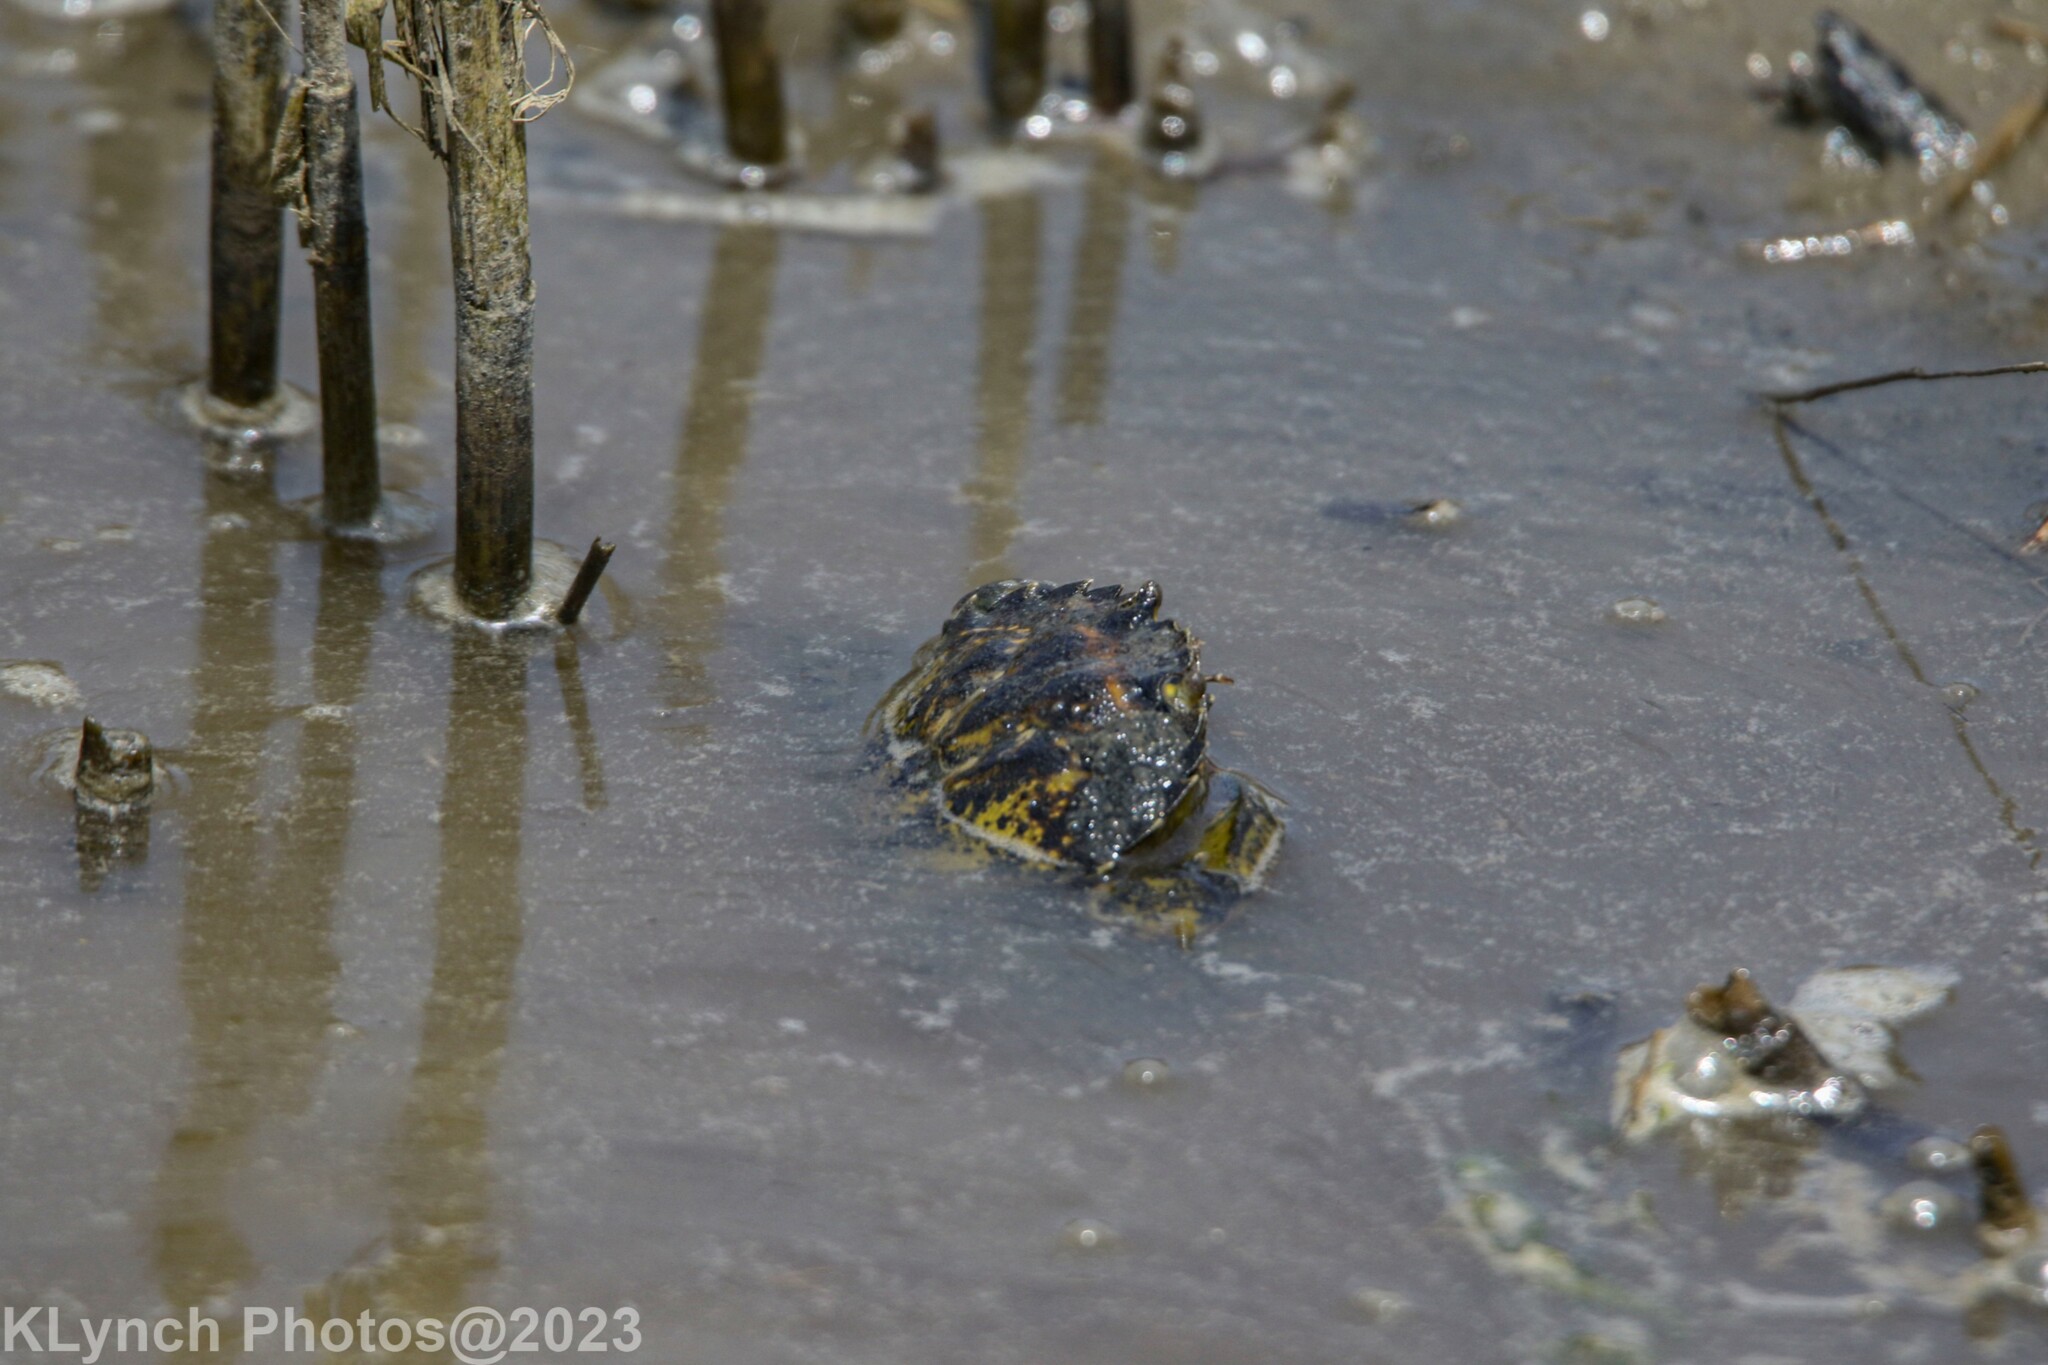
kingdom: Animalia
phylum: Arthropoda
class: Malacostraca
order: Decapoda
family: Carcinidae
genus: Carcinus
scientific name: Carcinus maenas
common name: European green crab
